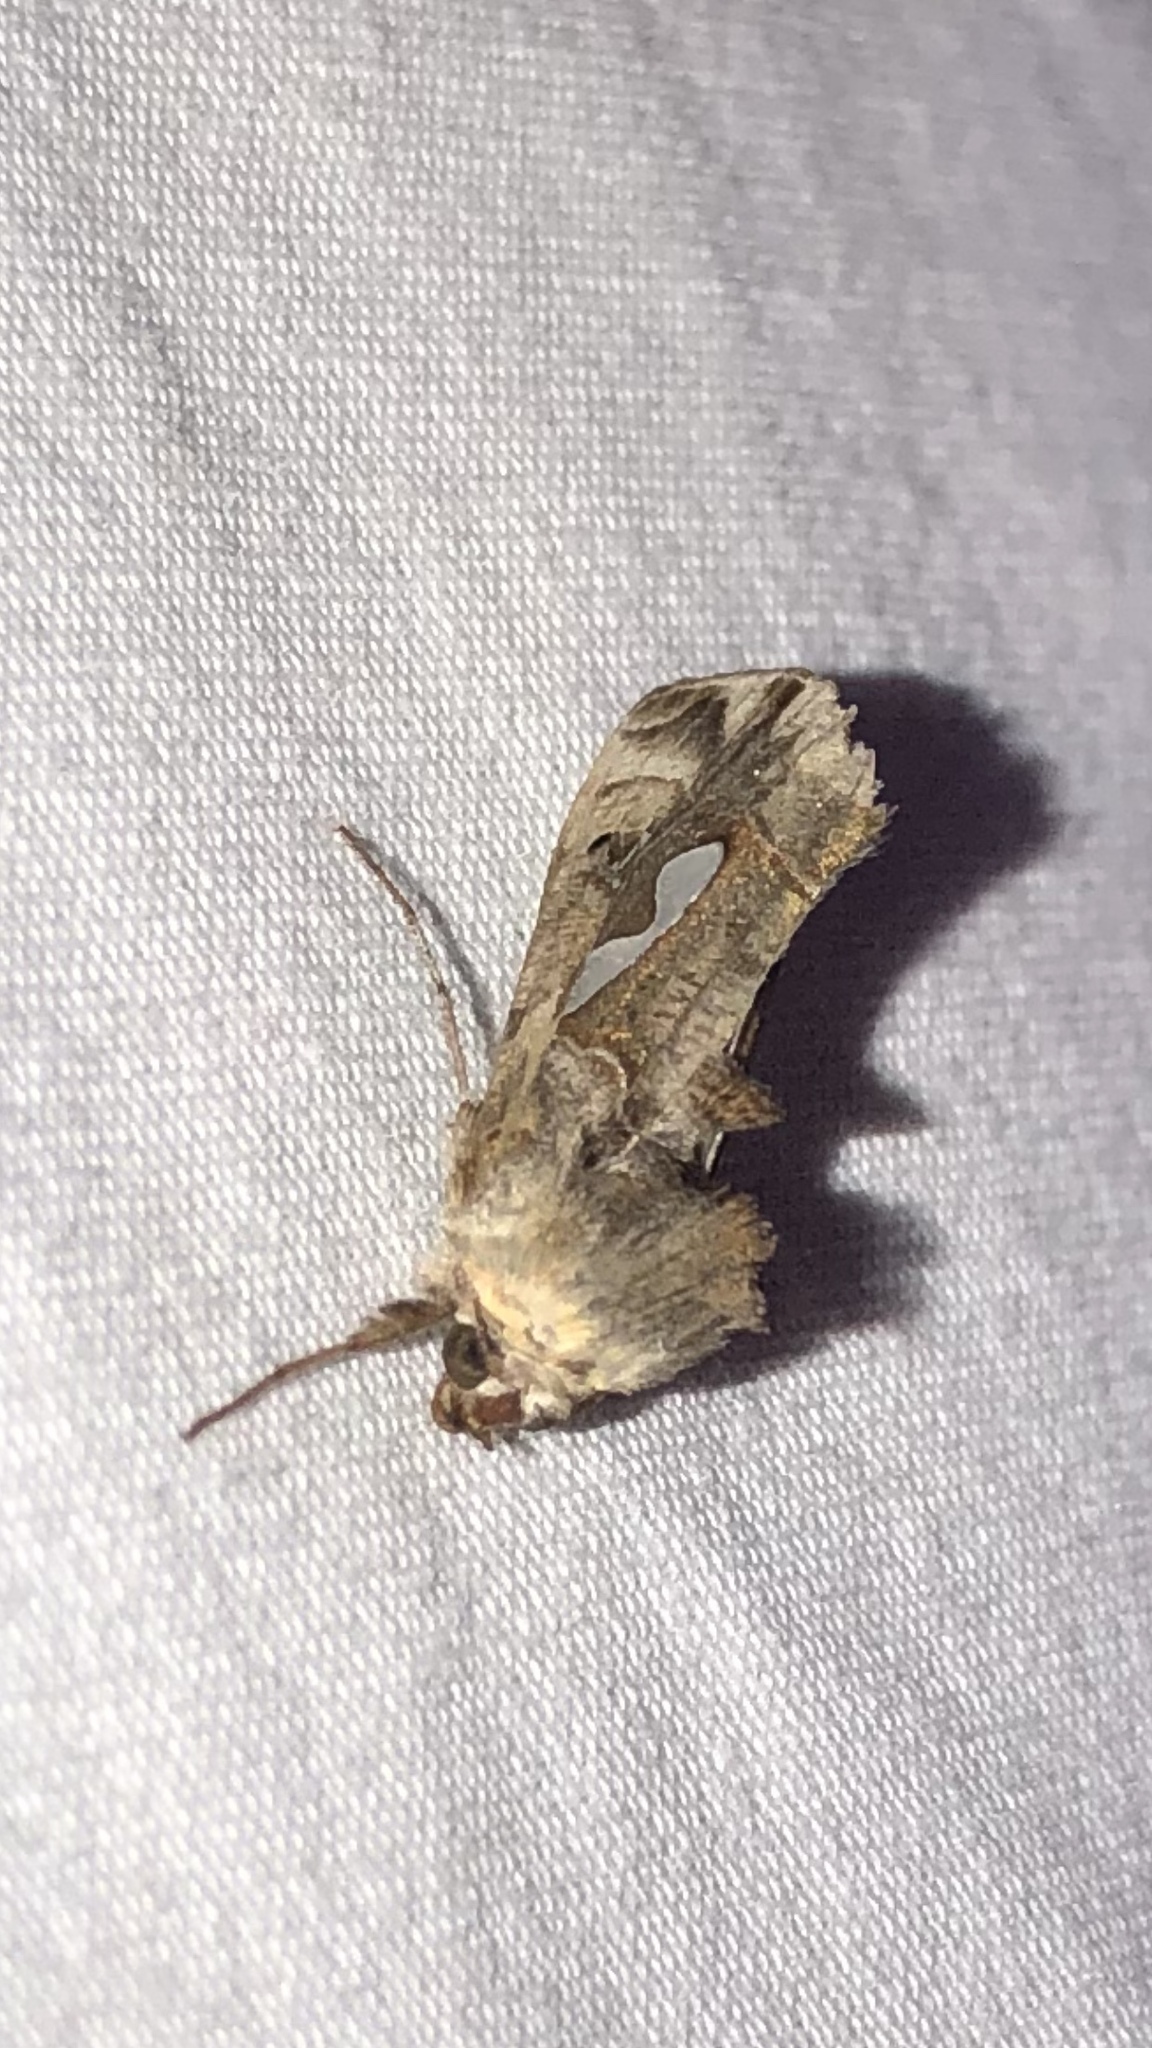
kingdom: Animalia
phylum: Arthropoda
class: Insecta
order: Lepidoptera
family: Noctuidae
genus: Megalographa
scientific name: Megalographa biloba
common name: Cutworm
